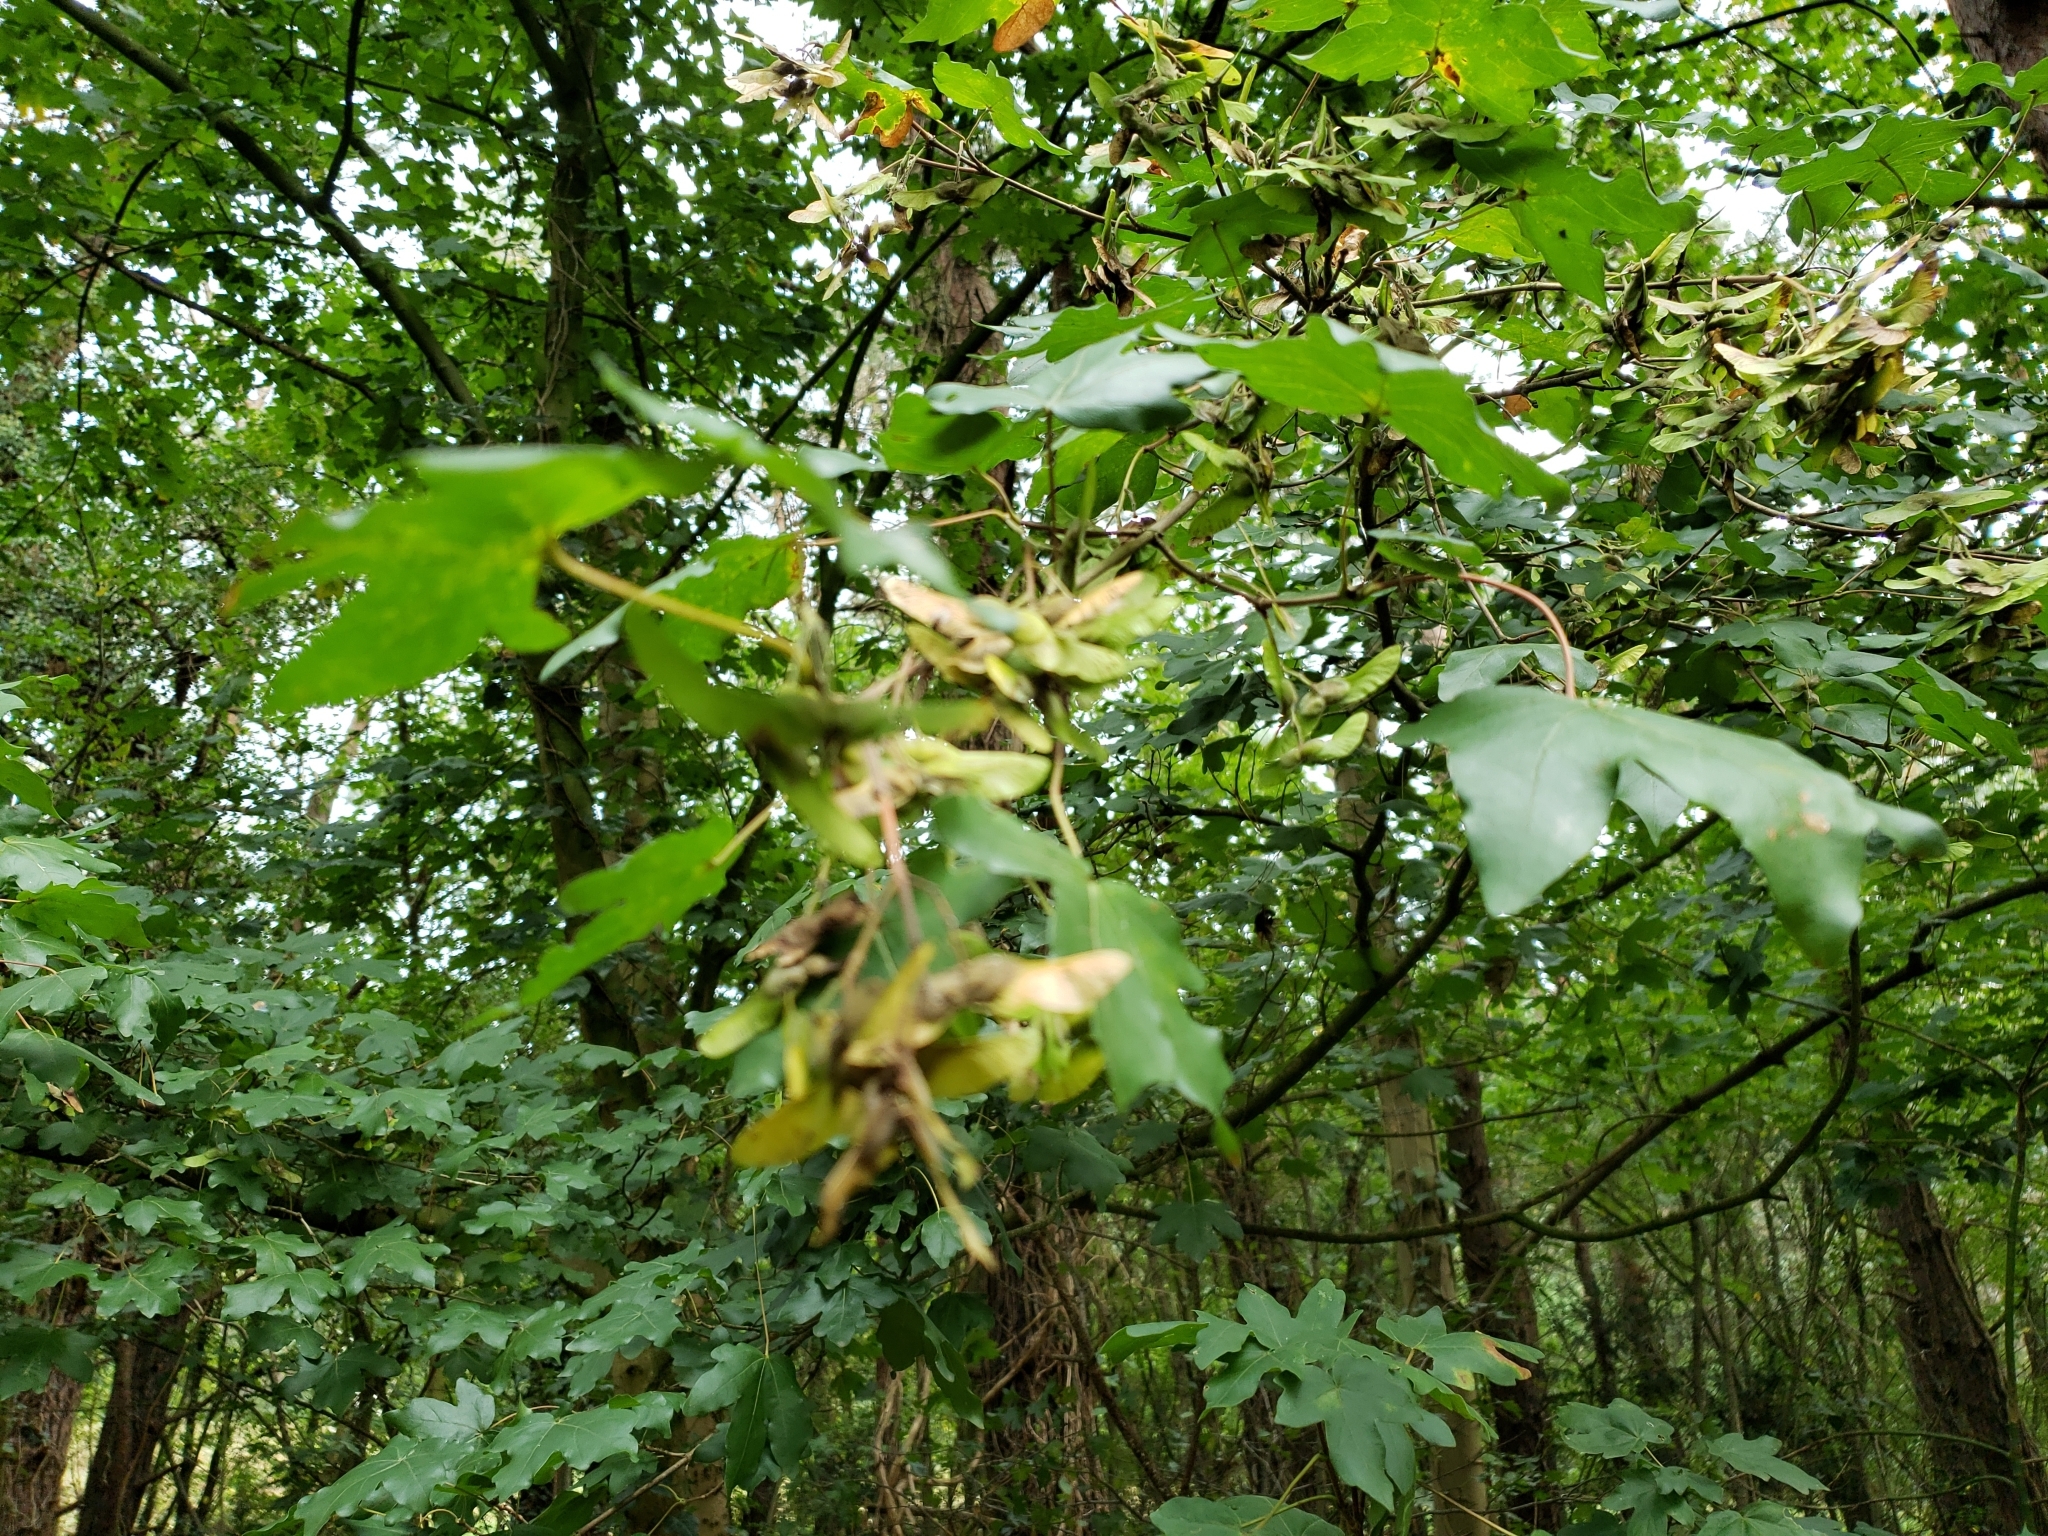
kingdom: Plantae
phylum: Tracheophyta
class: Magnoliopsida
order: Sapindales
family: Sapindaceae
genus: Acer
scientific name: Acer campestre
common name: Field maple
